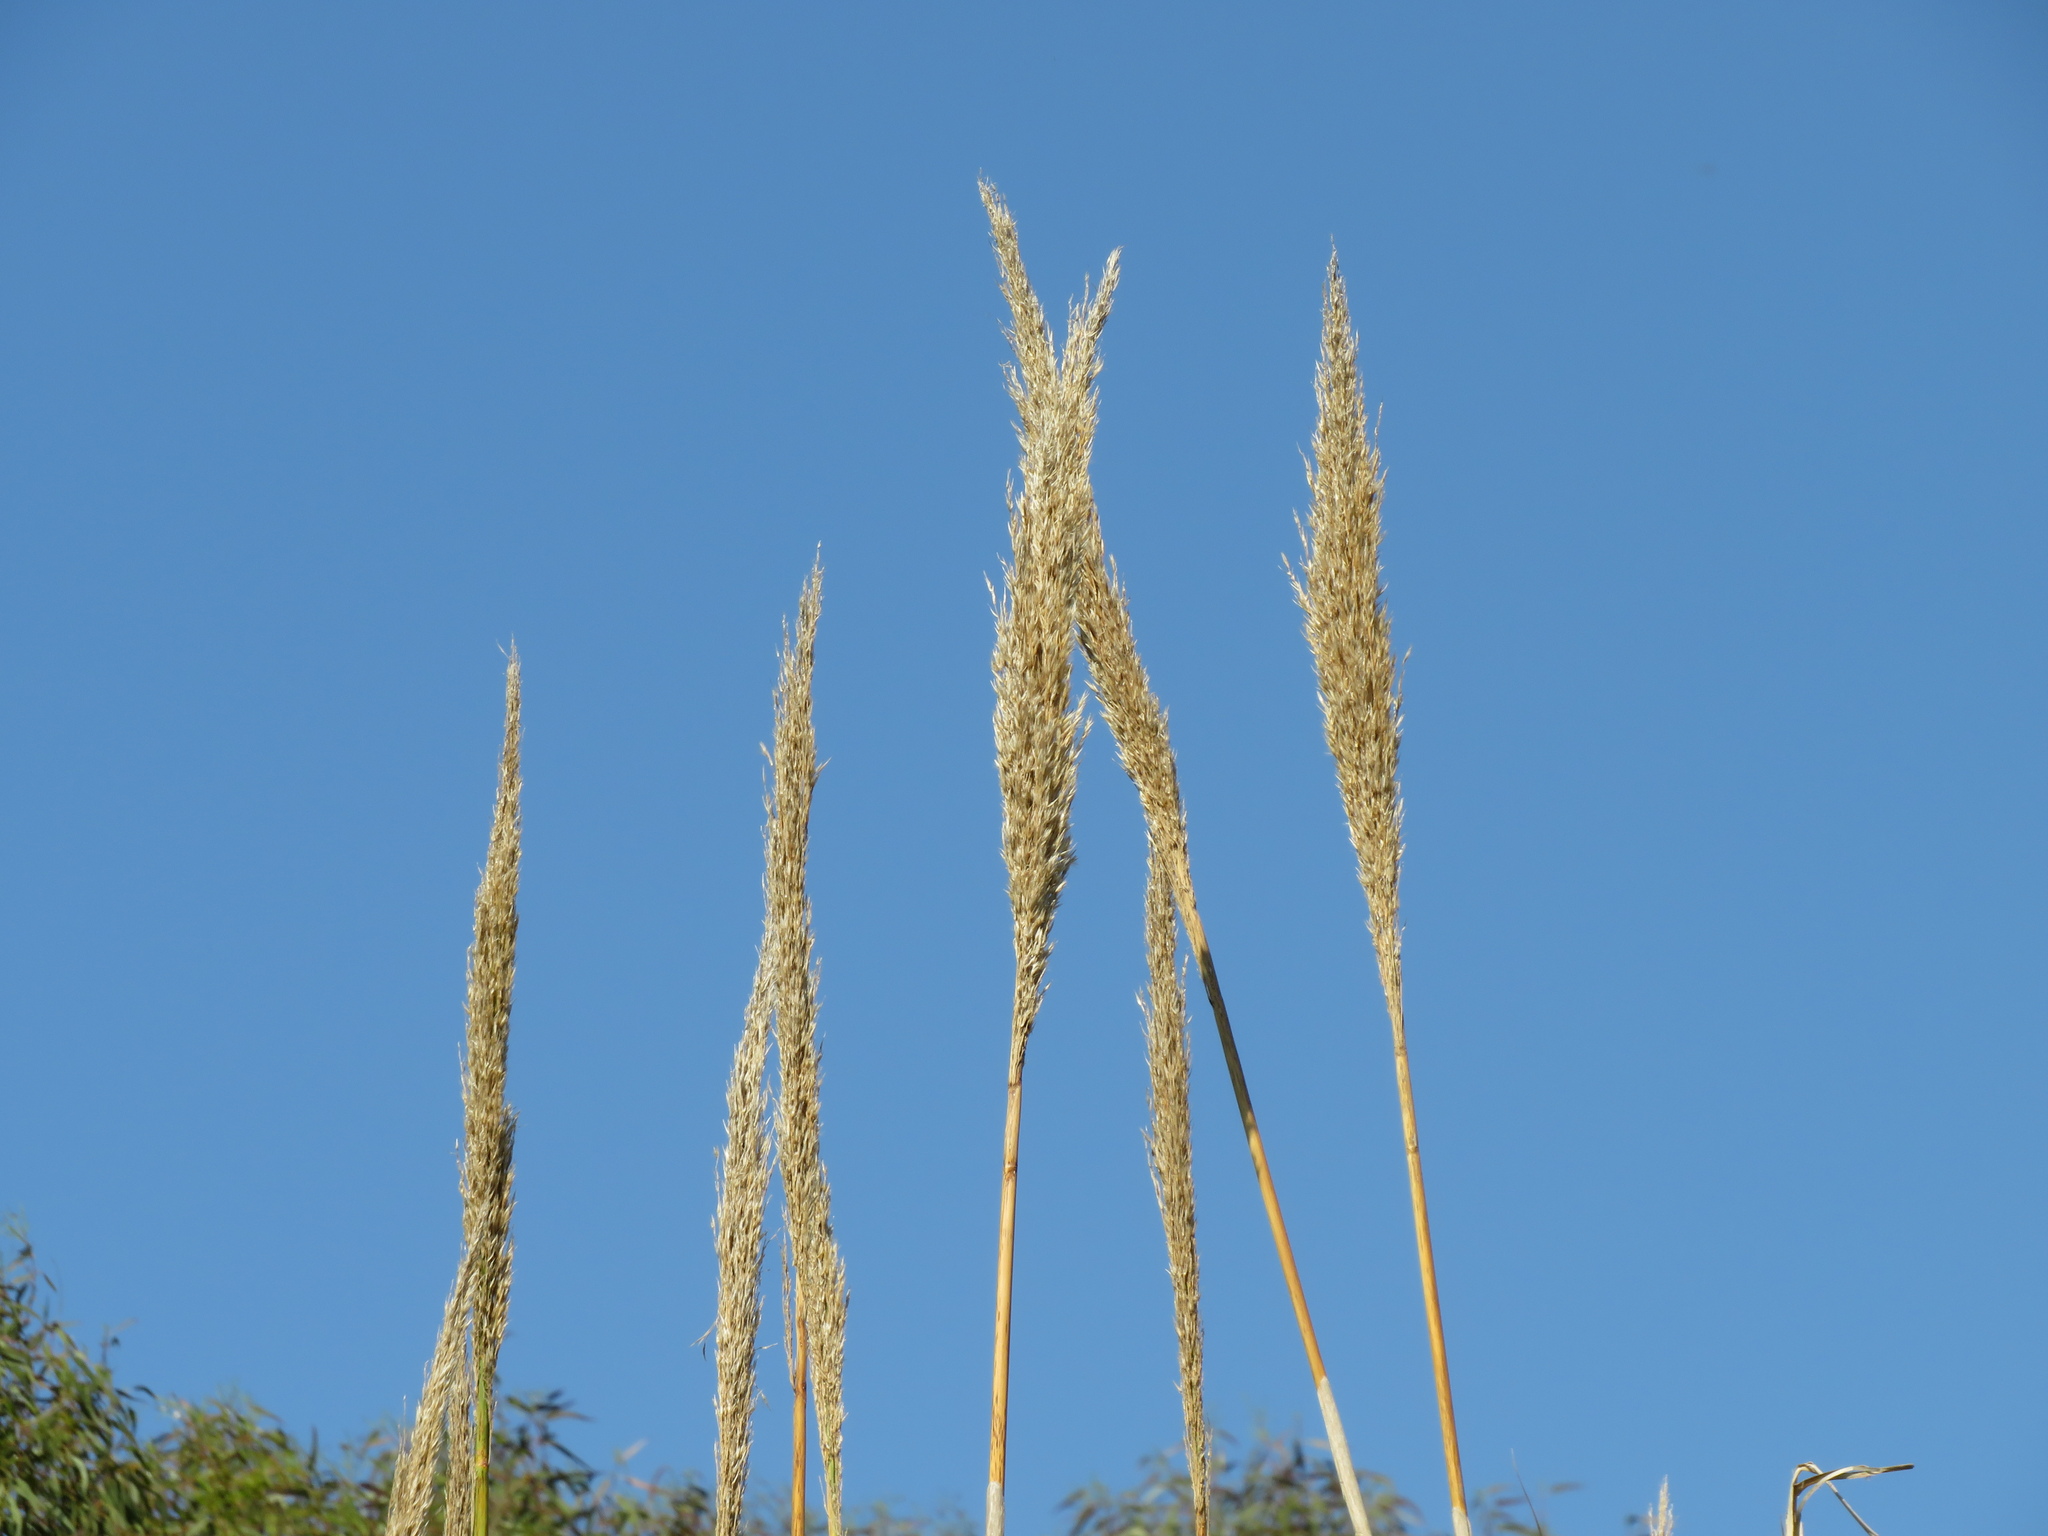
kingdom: Plantae
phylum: Tracheophyta
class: Liliopsida
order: Poales
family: Poaceae
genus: Sporobolus
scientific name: Sporobolus indicus
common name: Smut grass
